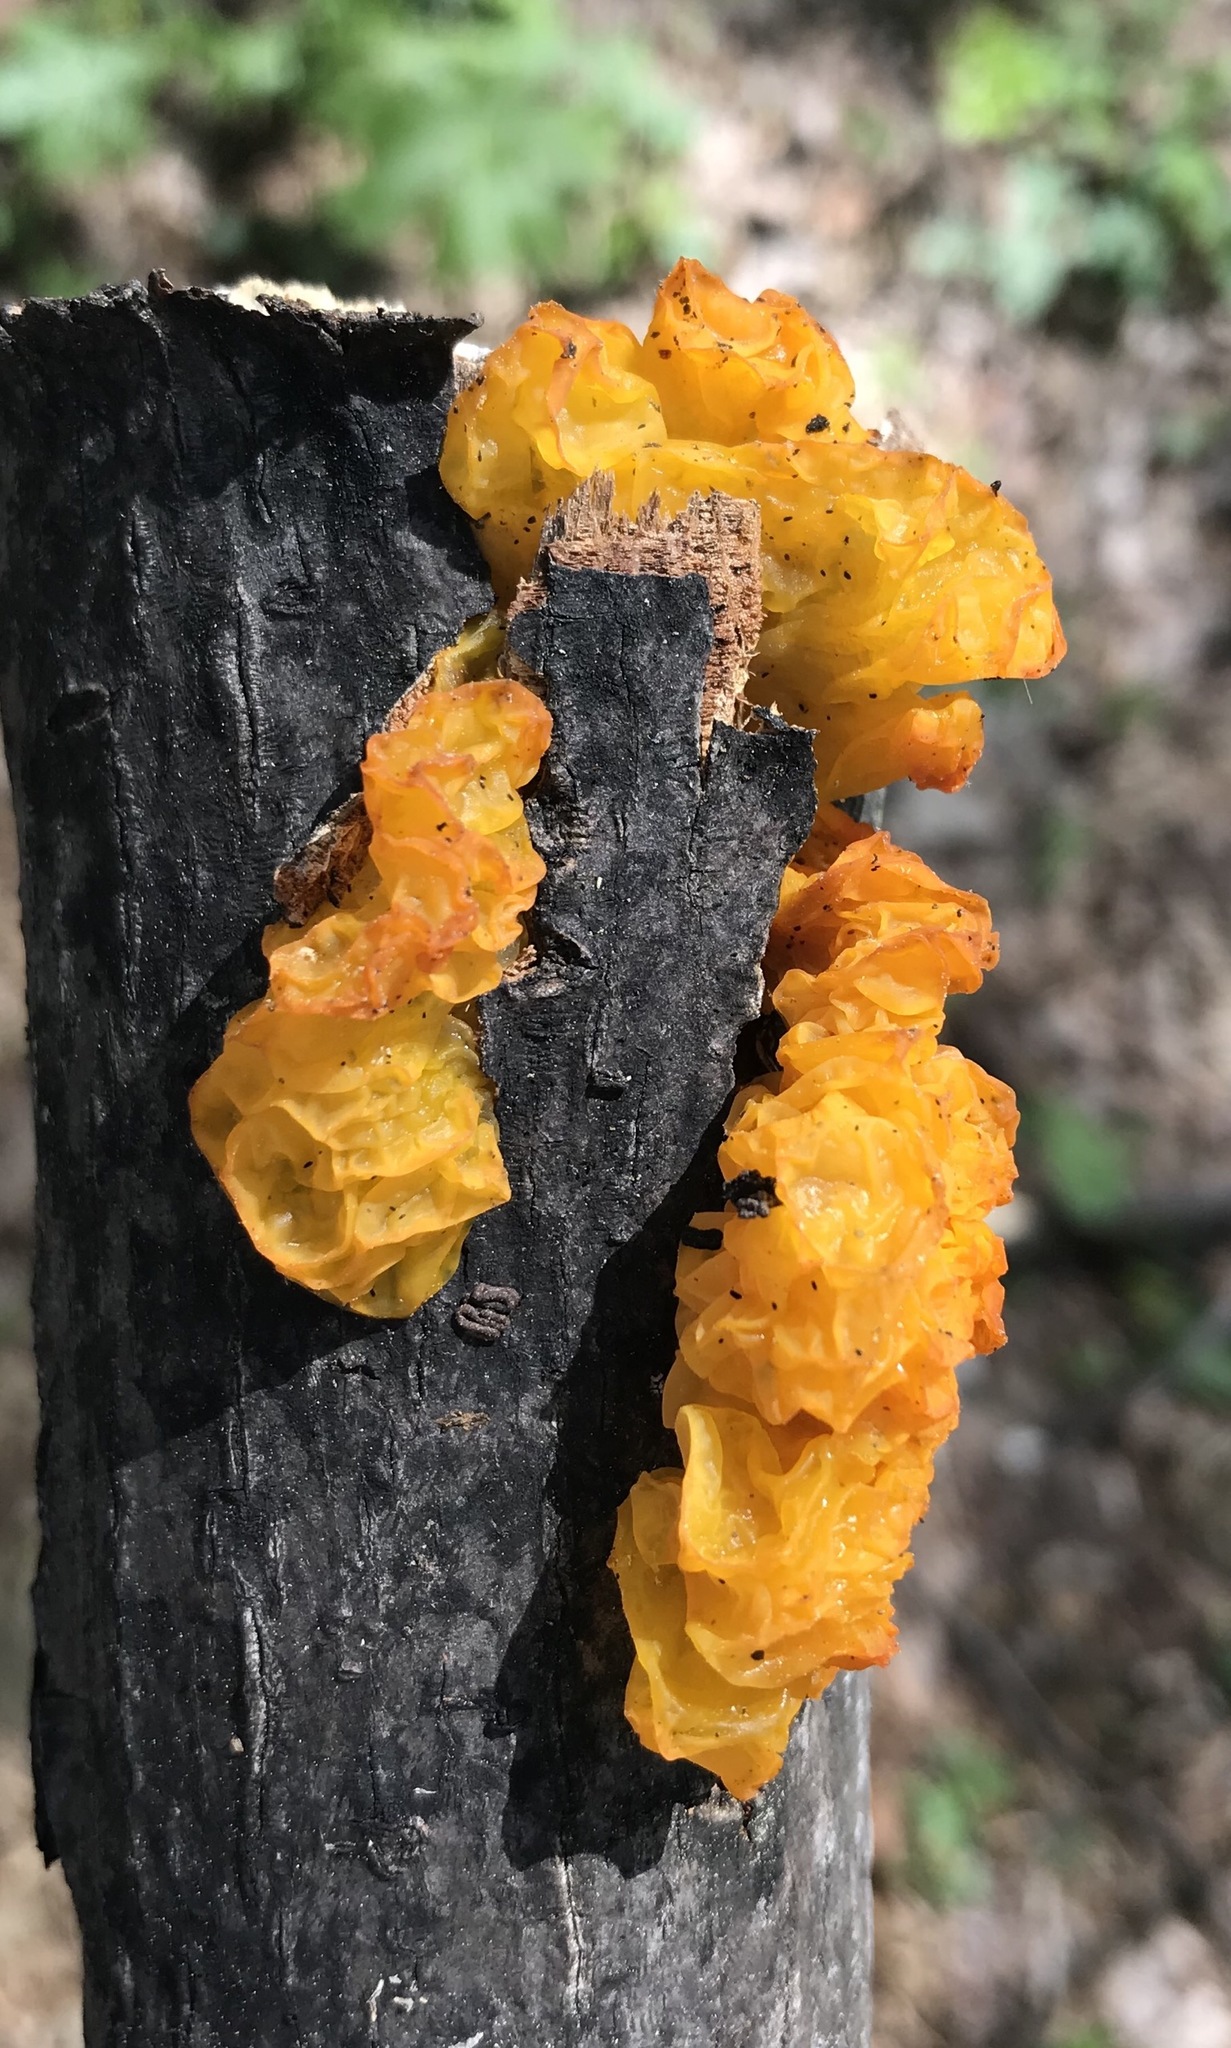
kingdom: Fungi
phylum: Basidiomycota
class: Tremellomycetes
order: Tremellales
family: Tremellaceae
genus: Tremella
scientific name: Tremella mesenterica
